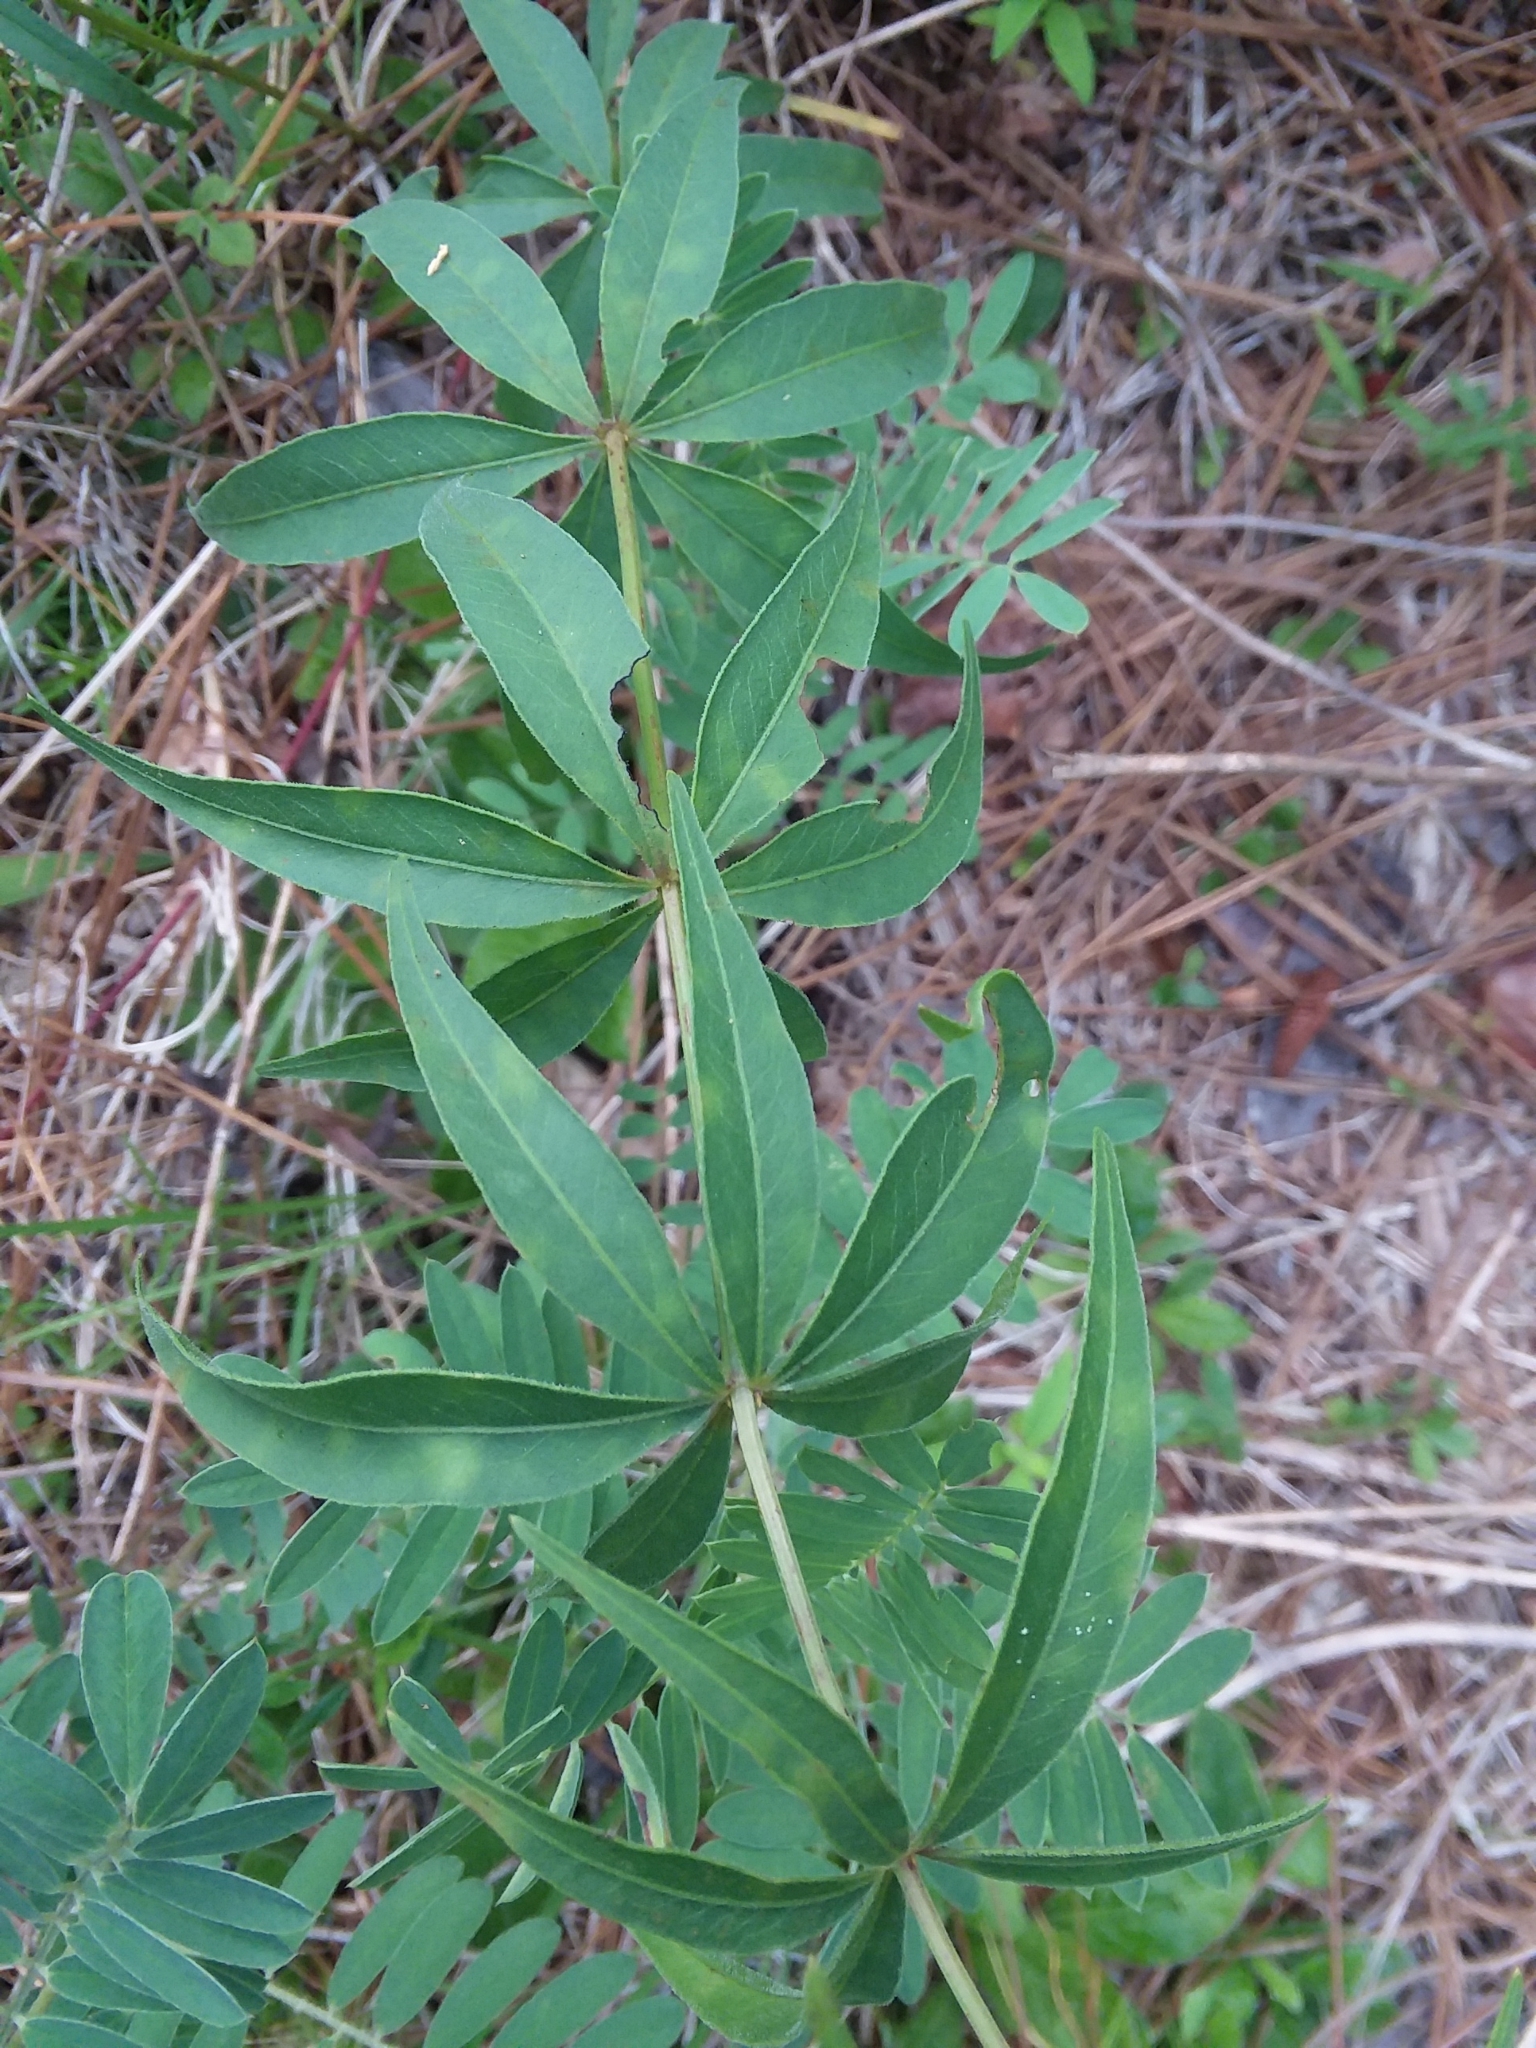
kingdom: Plantae
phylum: Tracheophyta
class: Magnoliopsida
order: Asterales
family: Asteraceae
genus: Coreopsis
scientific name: Coreopsis major
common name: Forest tickseed
